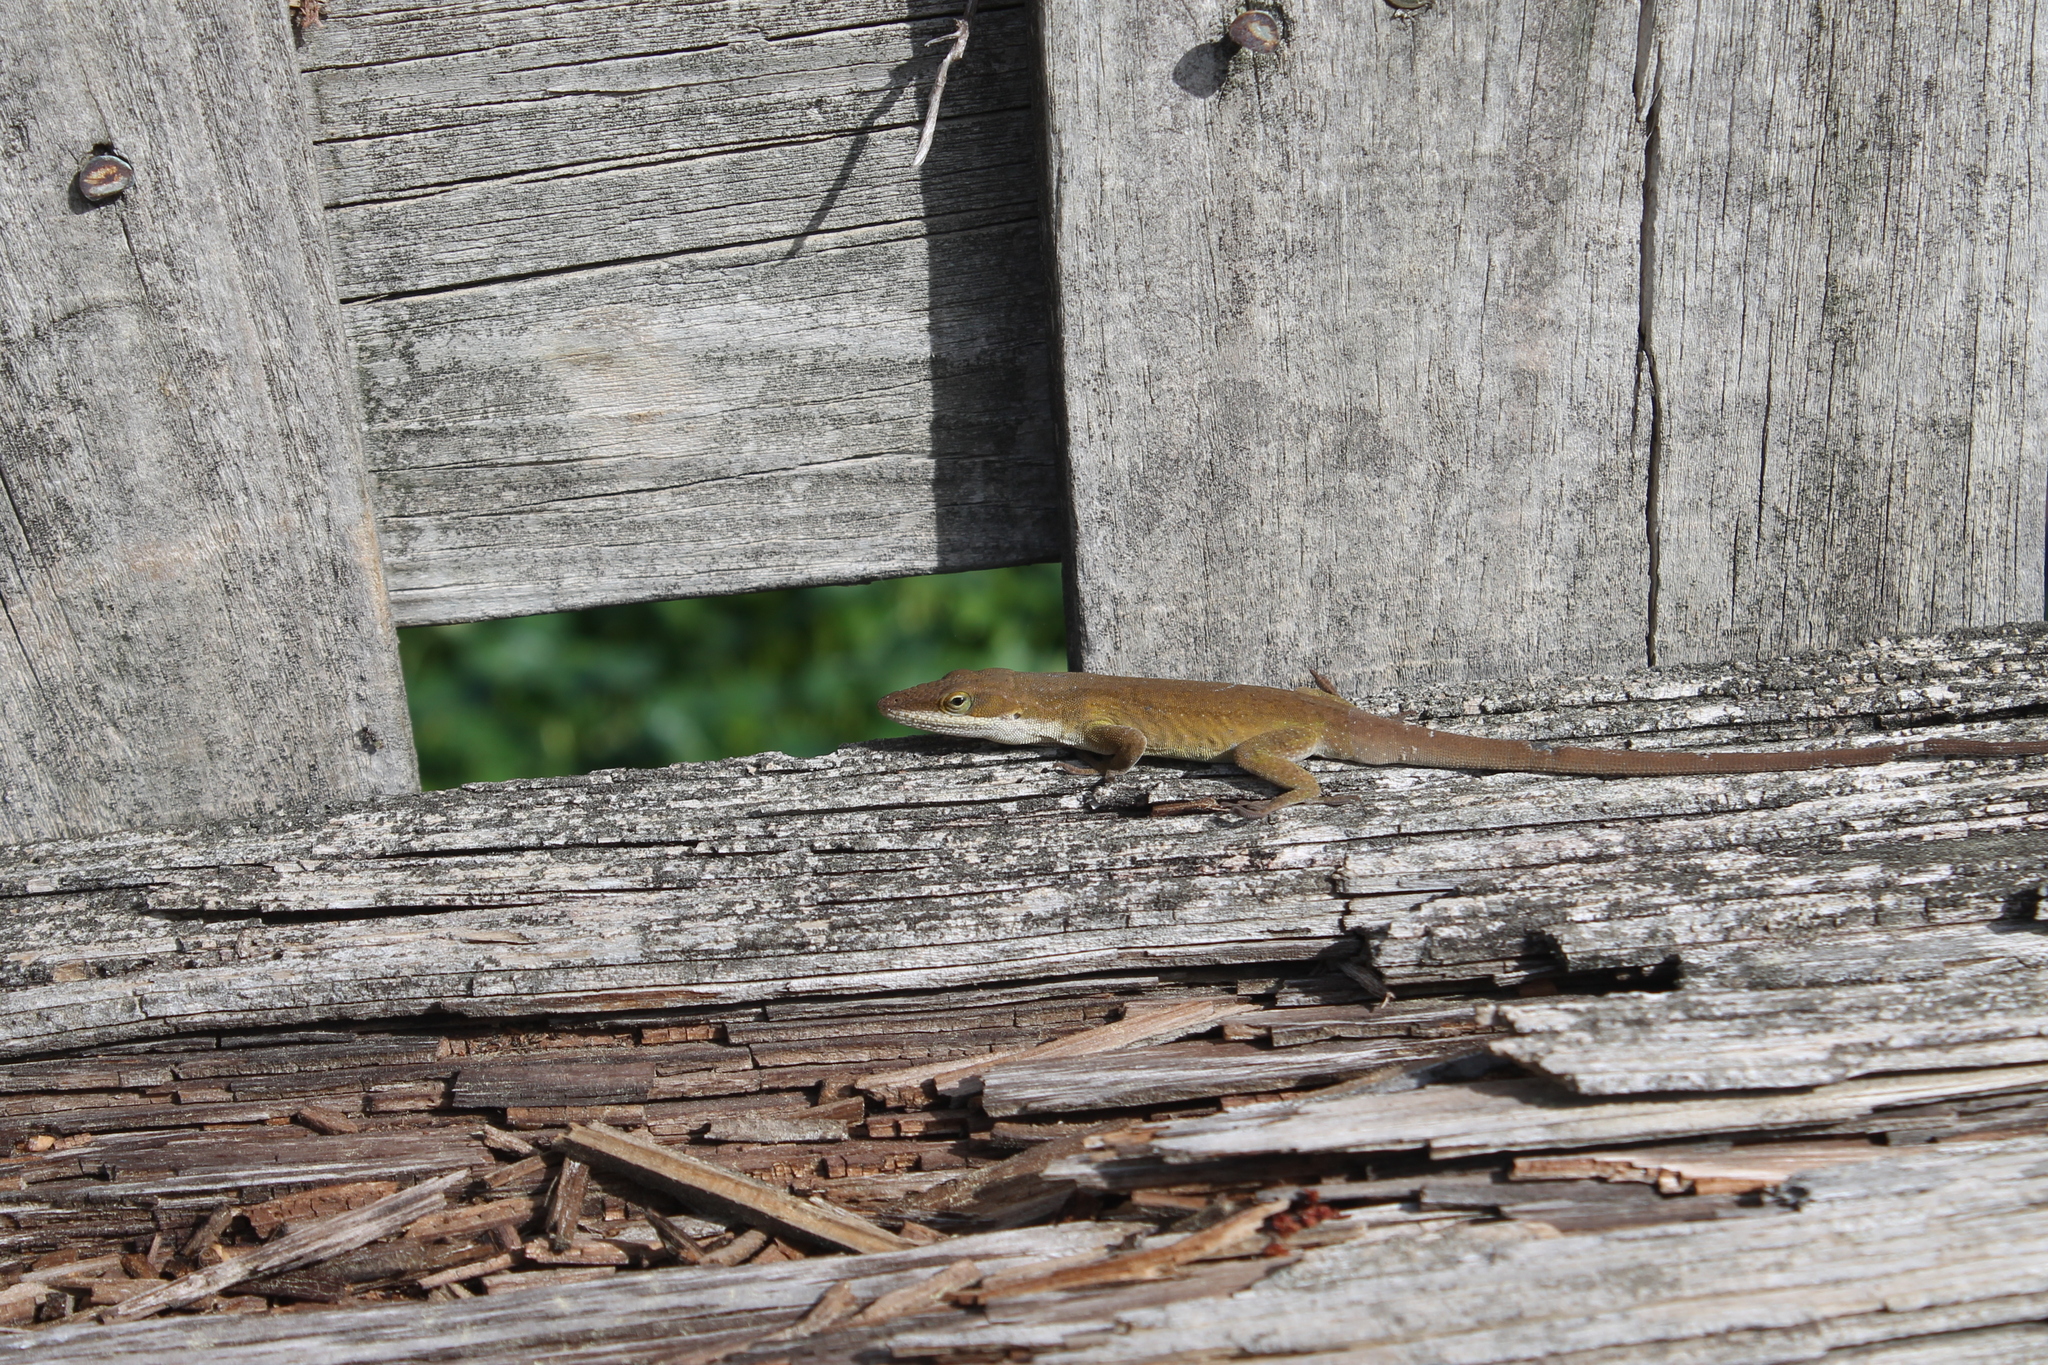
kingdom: Animalia
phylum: Chordata
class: Squamata
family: Dactyloidae
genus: Anolis
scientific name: Anolis carolinensis
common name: Green anole
